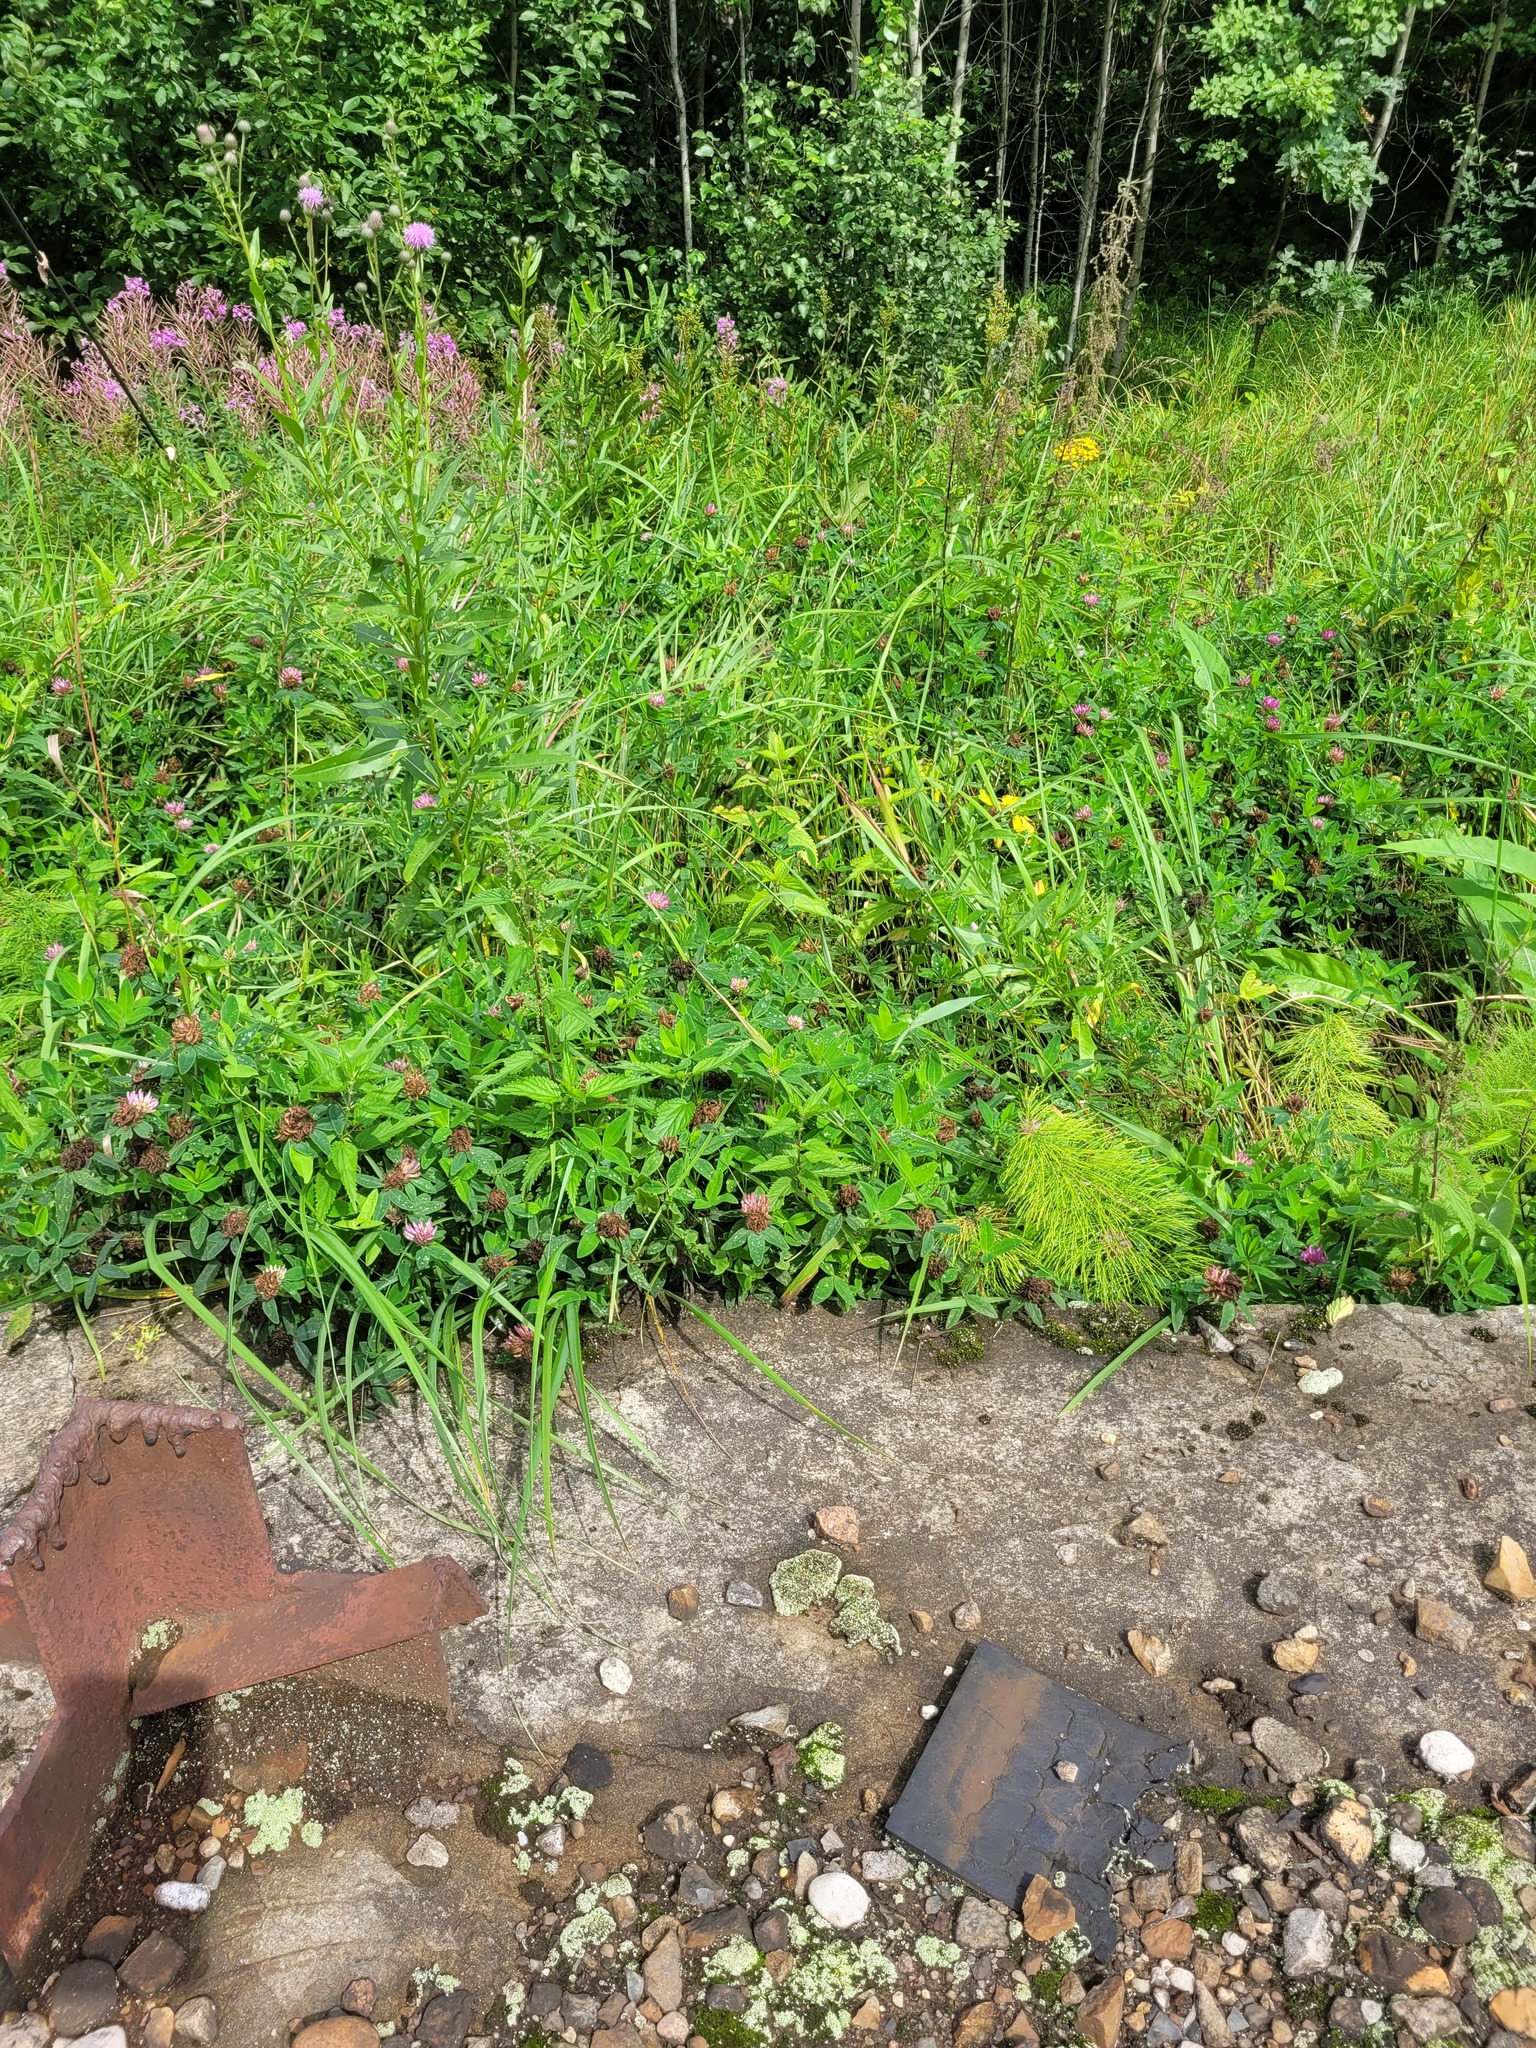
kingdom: Plantae
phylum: Tracheophyta
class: Magnoliopsida
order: Fabales
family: Fabaceae
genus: Trifolium
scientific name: Trifolium medium
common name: Zigzag clover
